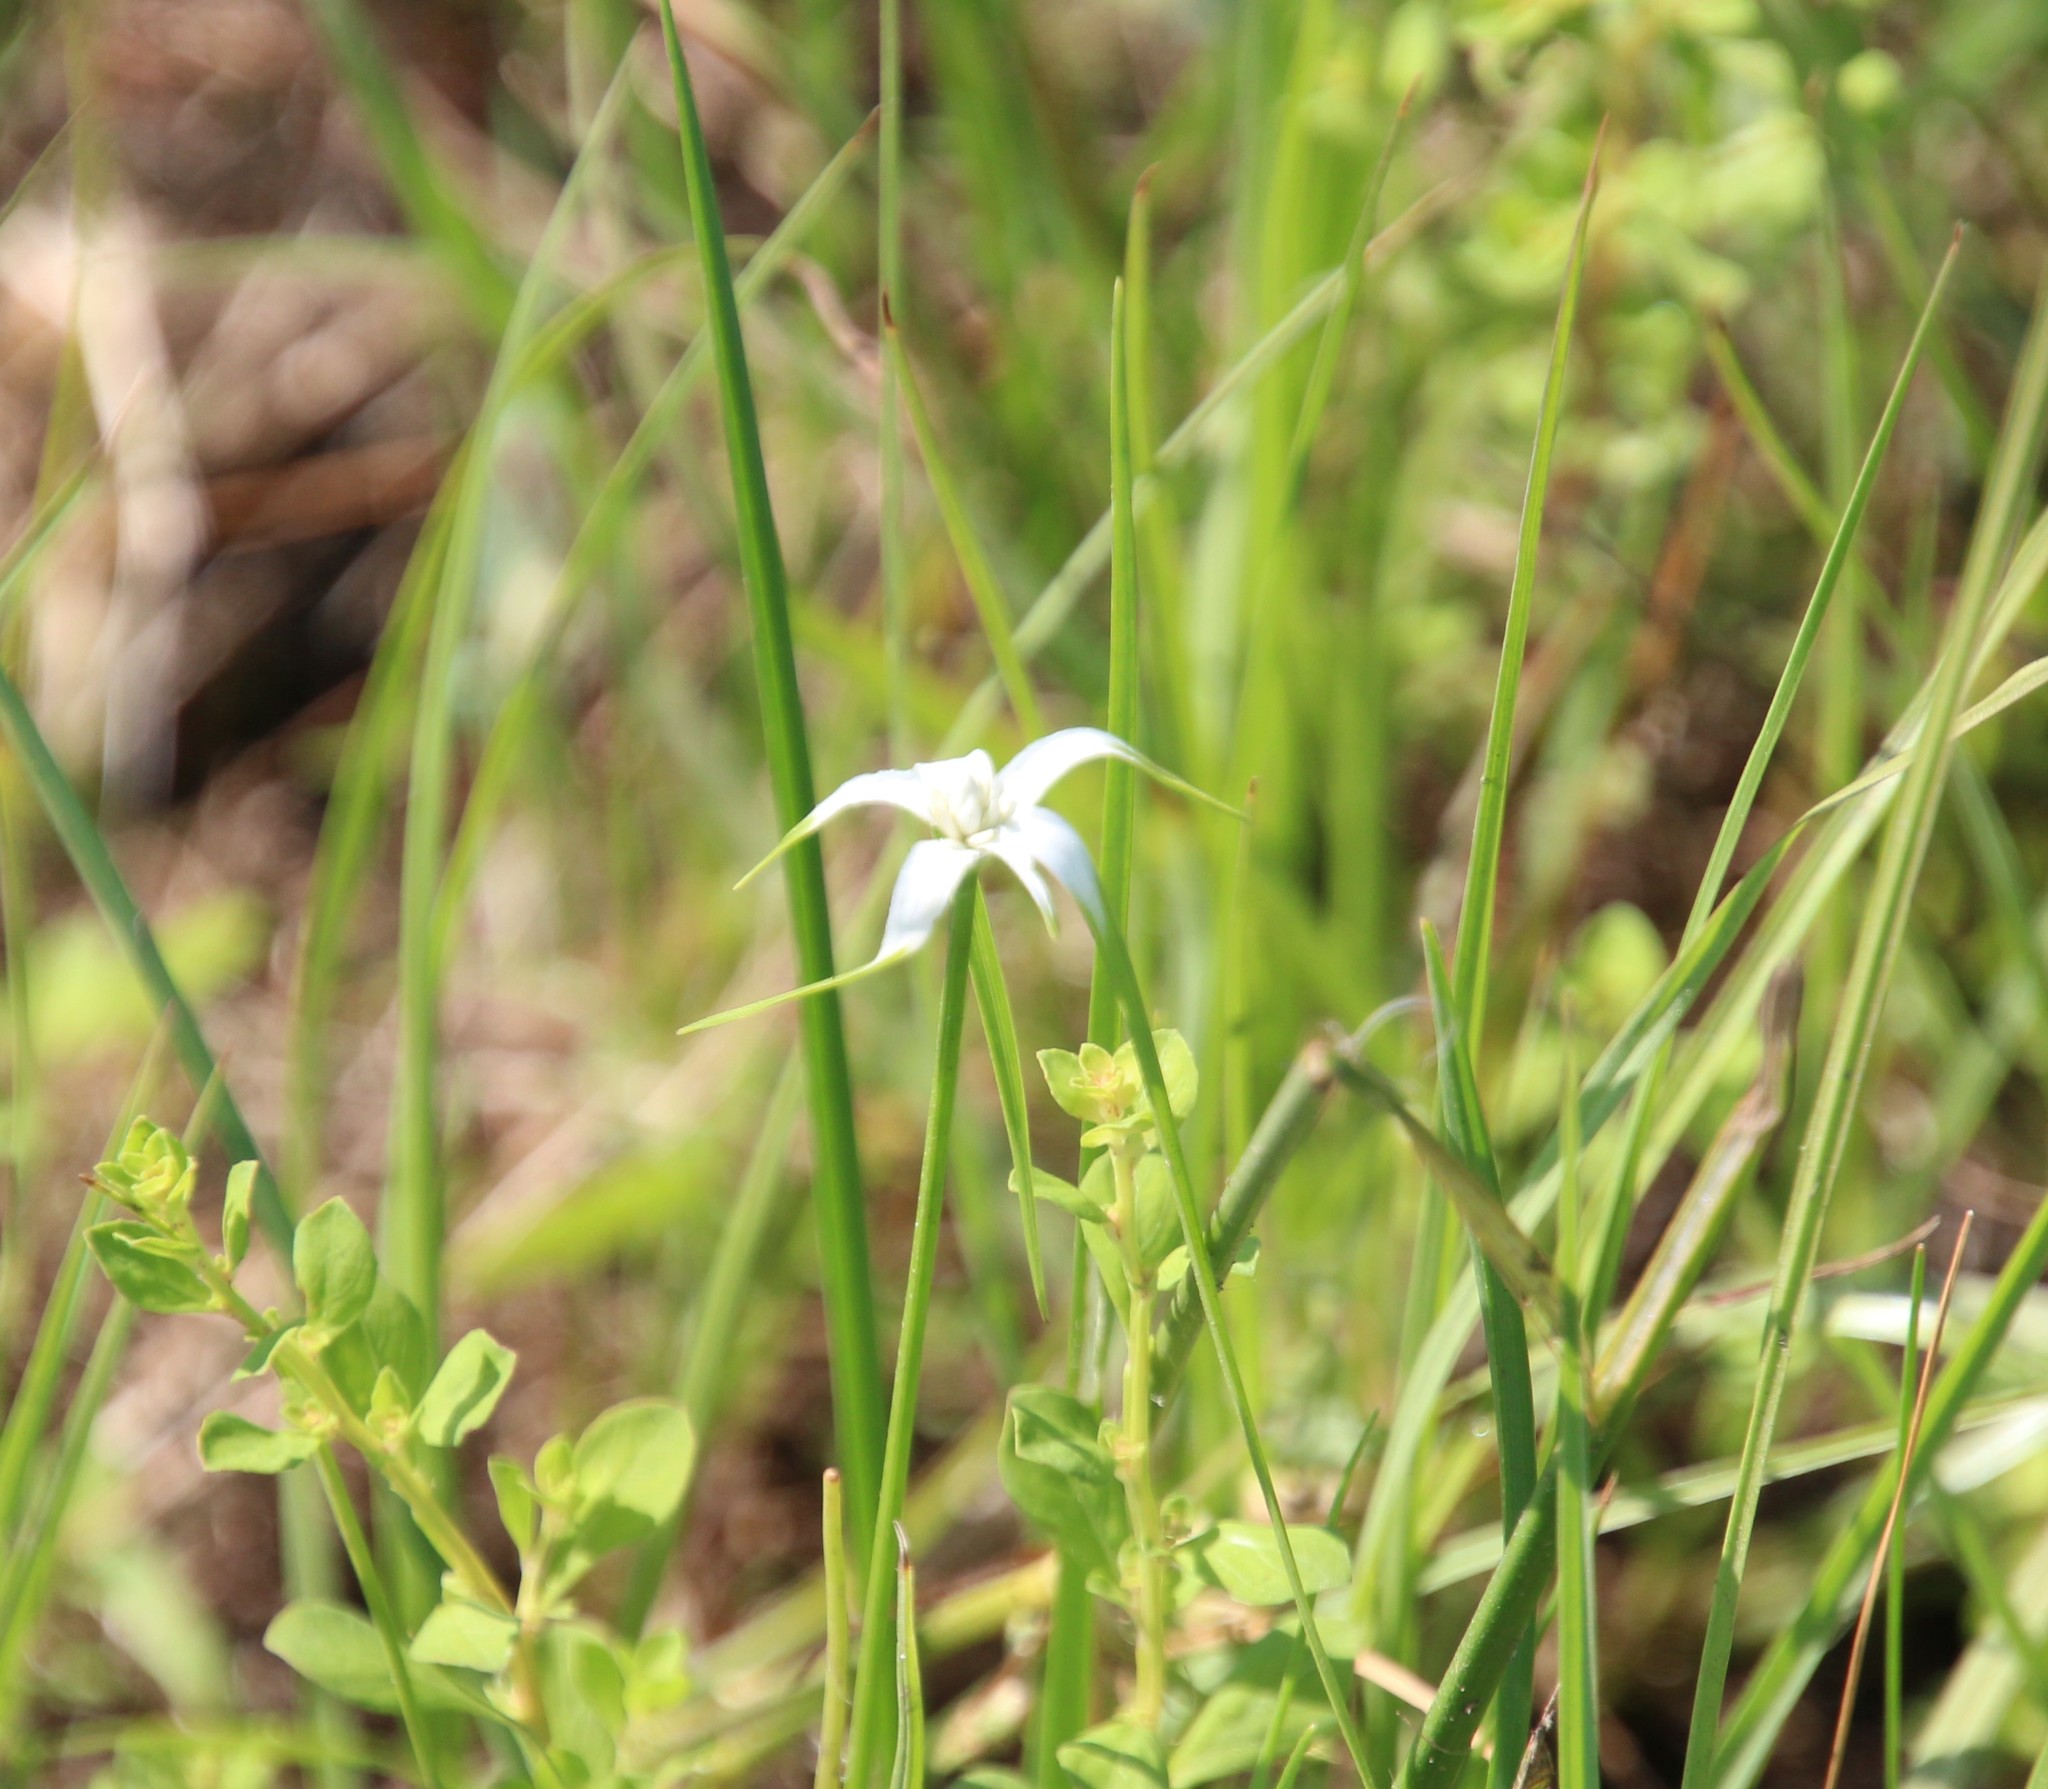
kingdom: Plantae
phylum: Tracheophyta
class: Liliopsida
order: Poales
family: Cyperaceae
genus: Rhynchospora
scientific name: Rhynchospora colorata
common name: Star sedge
